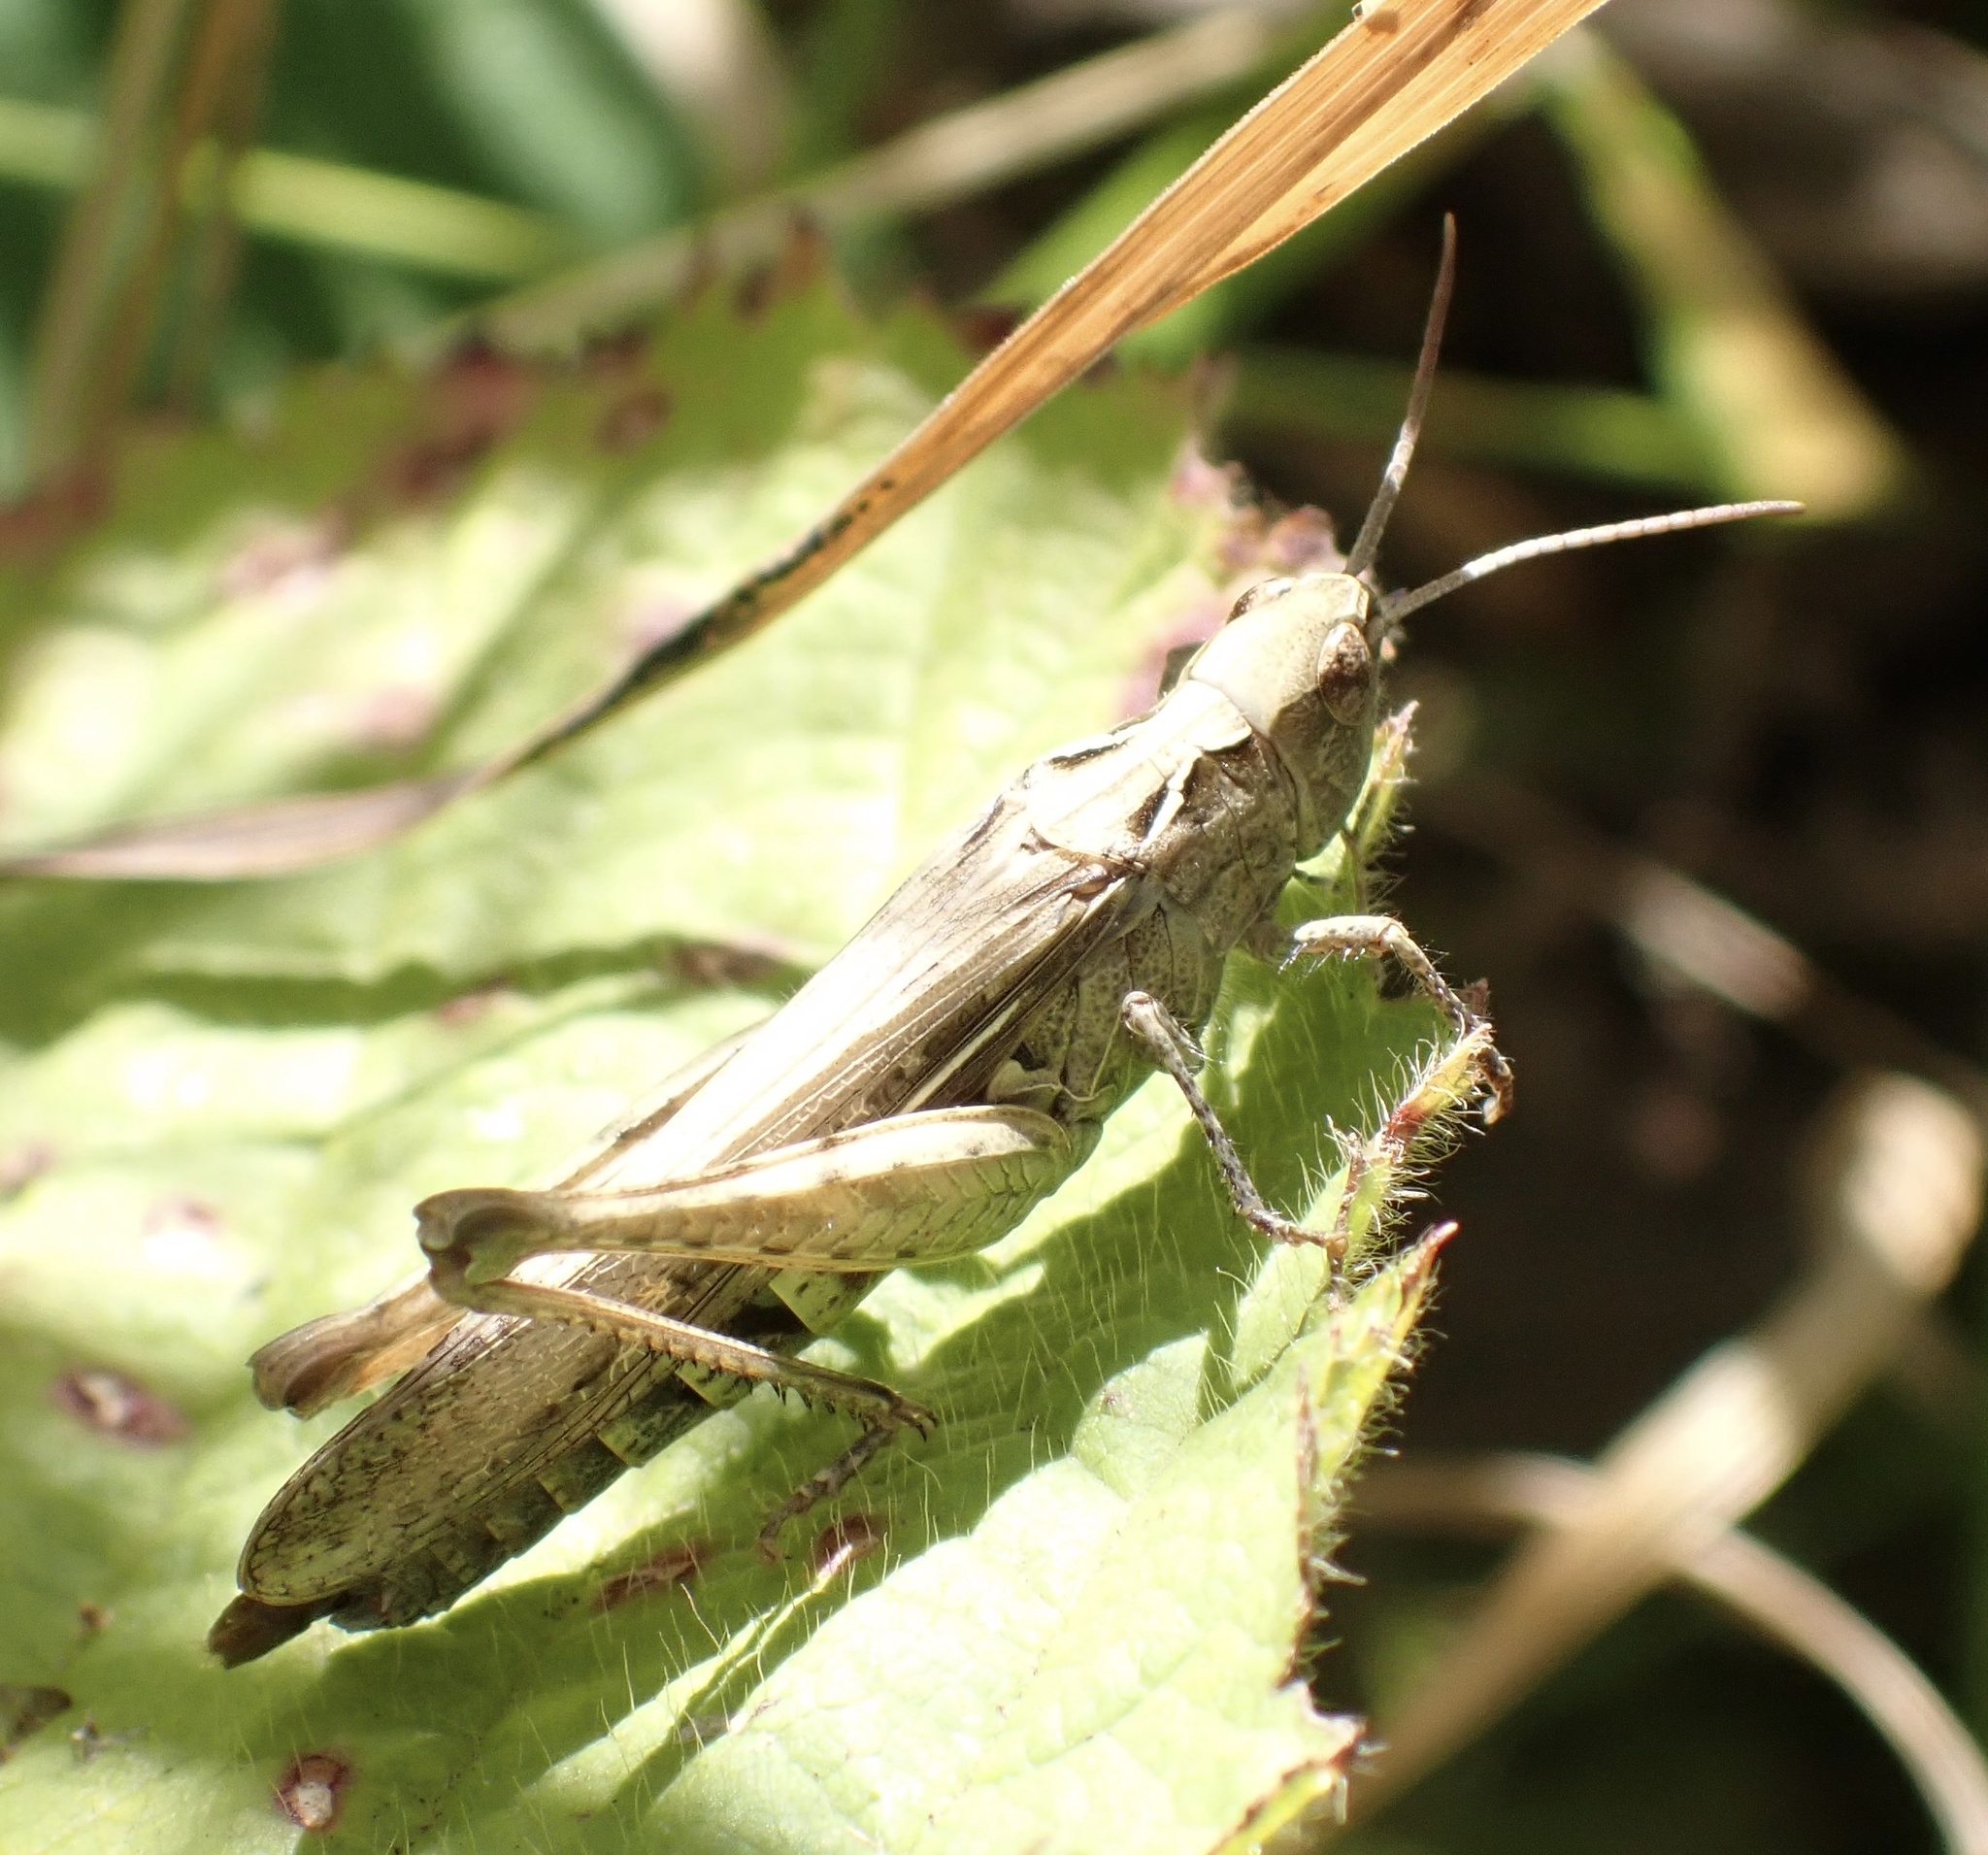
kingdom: Animalia
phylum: Arthropoda
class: Insecta
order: Orthoptera
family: Acrididae
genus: Chorthippus
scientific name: Chorthippus brunneus
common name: Field grasshopper
